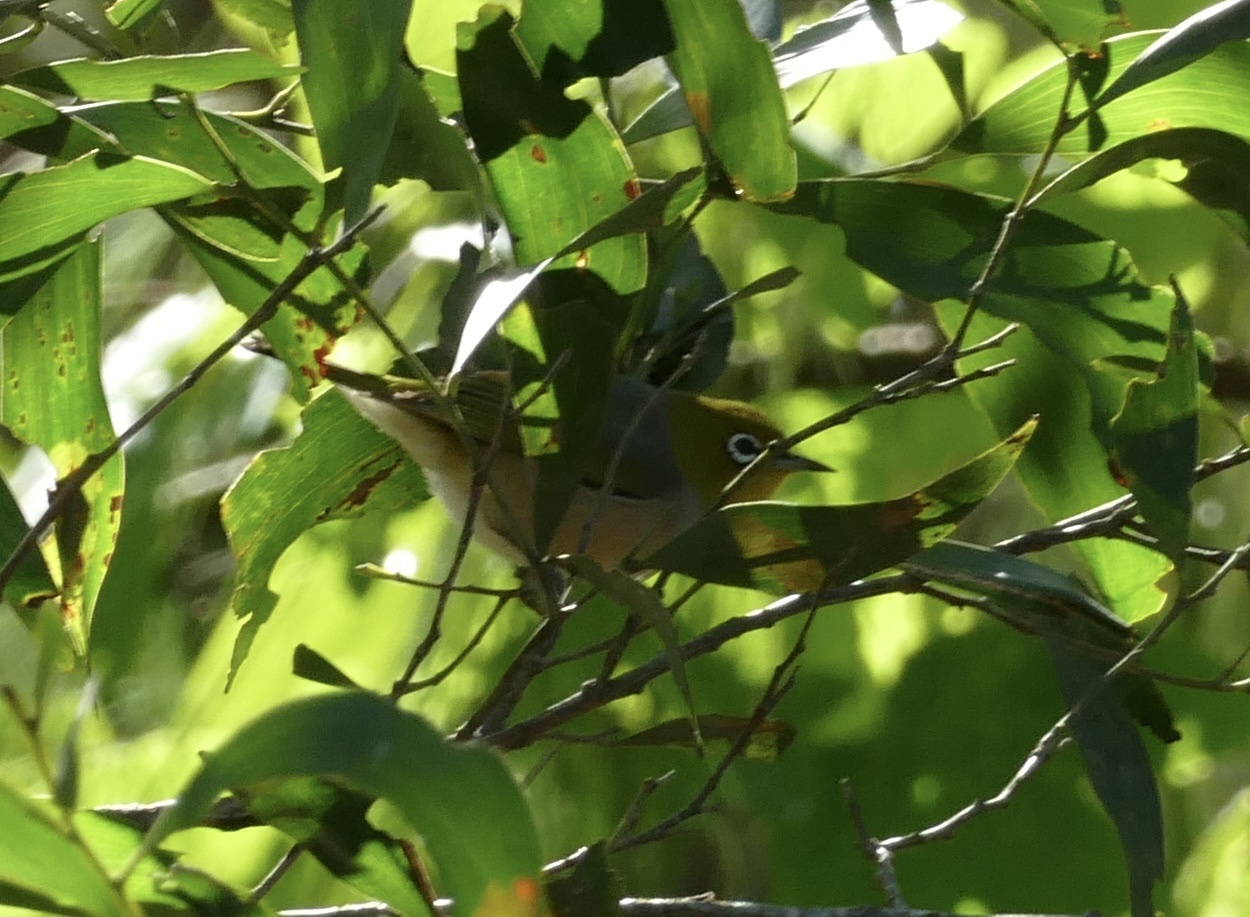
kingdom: Animalia
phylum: Chordata
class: Aves
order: Passeriformes
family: Zosteropidae
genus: Zosterops
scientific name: Zosterops lateralis
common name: Silvereye
